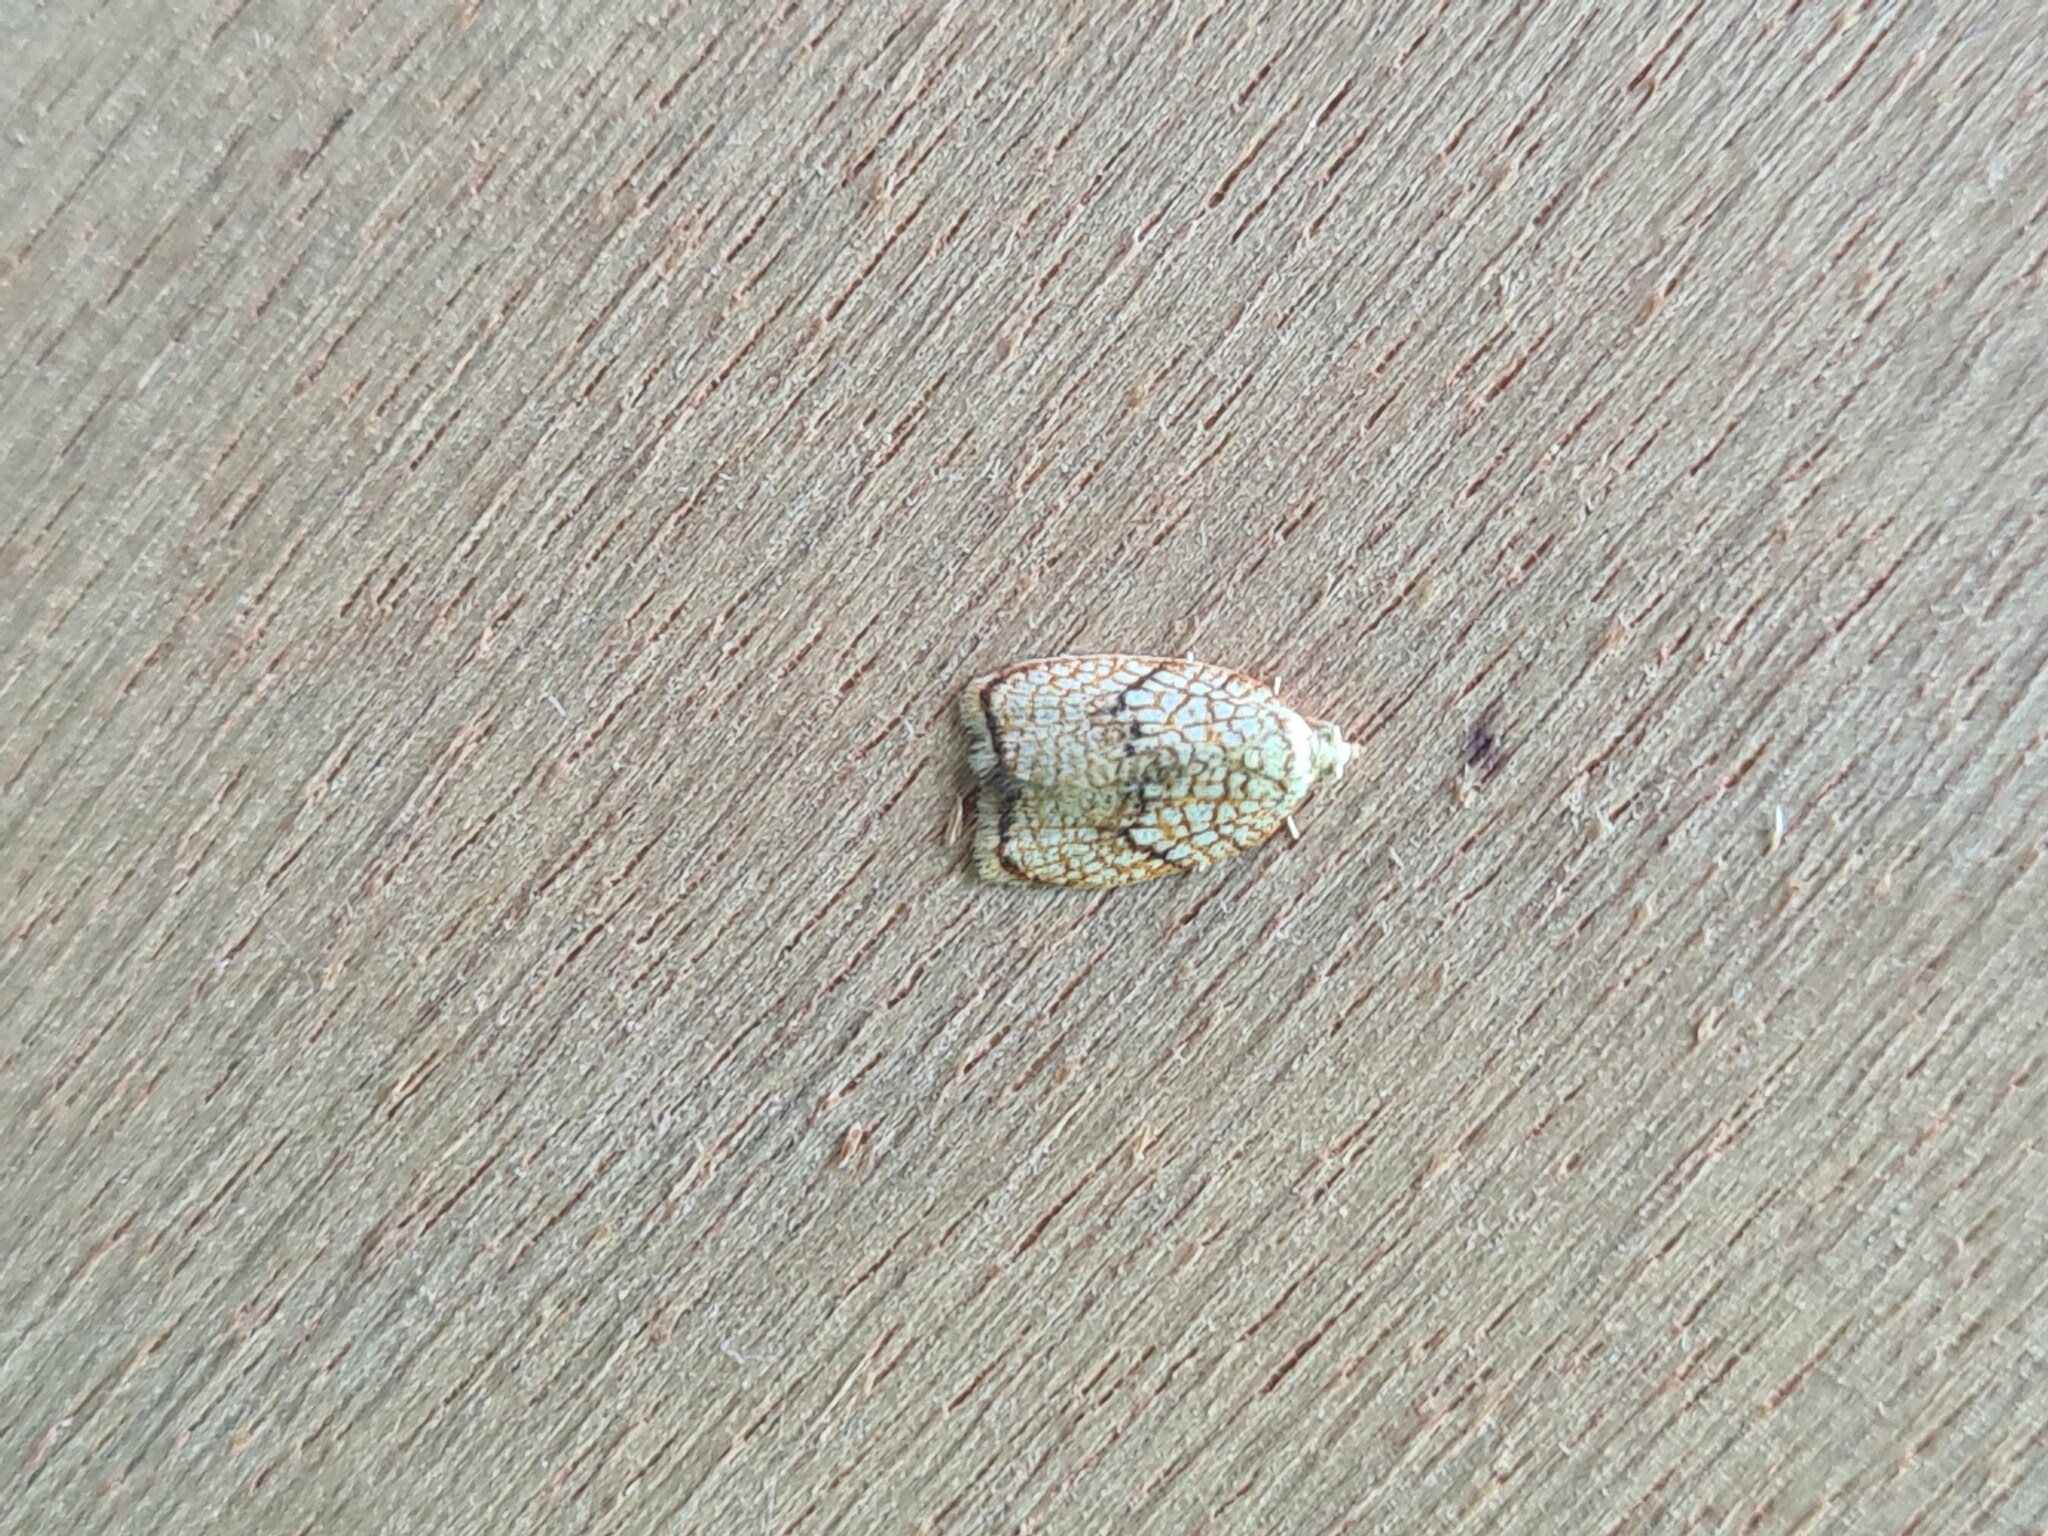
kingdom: Animalia
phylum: Arthropoda
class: Insecta
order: Lepidoptera
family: Tortricidae
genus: Acleris
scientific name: Acleris forsskaleana
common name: Maple button
